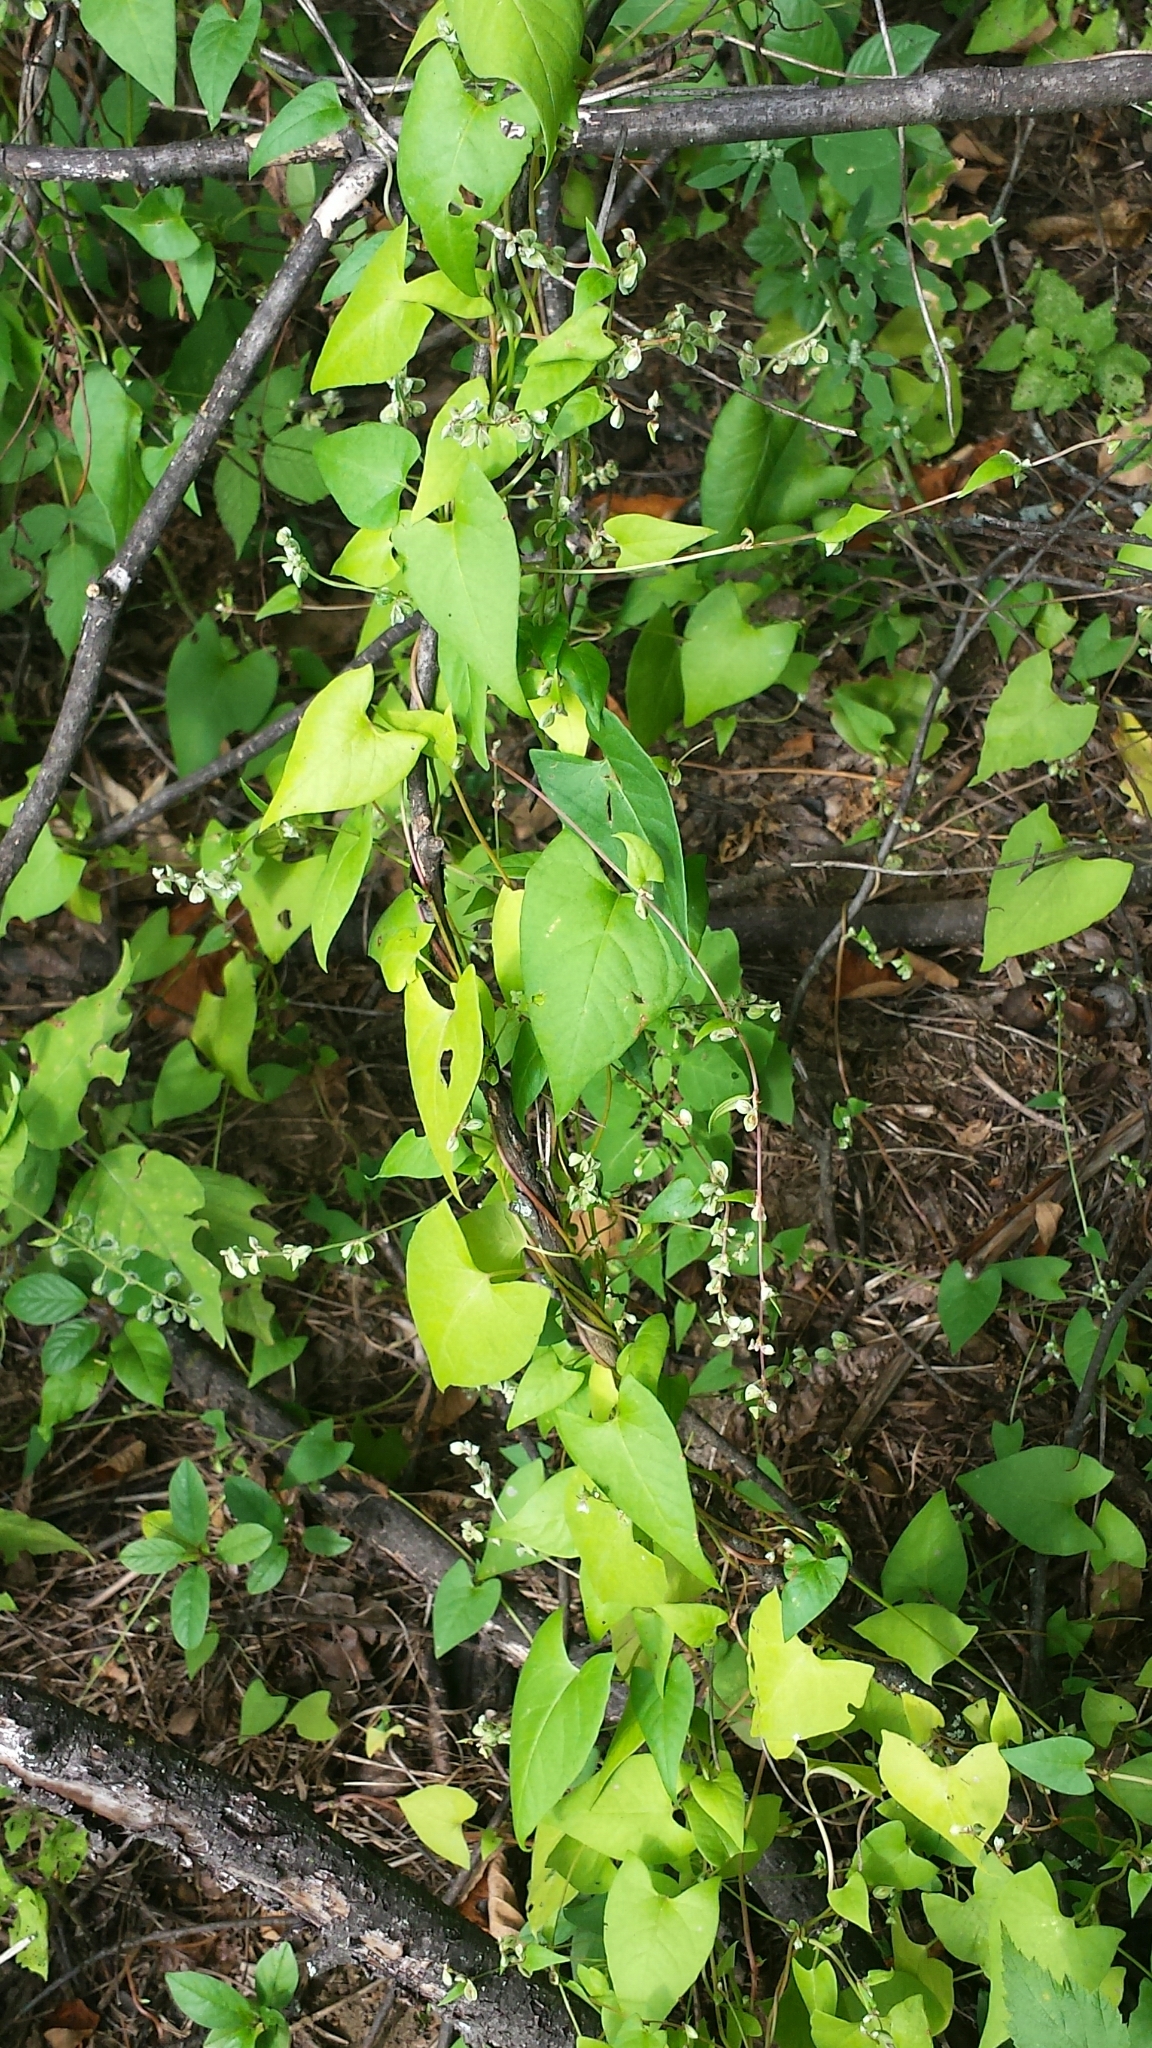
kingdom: Plantae
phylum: Tracheophyta
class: Magnoliopsida
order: Caryophyllales
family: Polygonaceae
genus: Fallopia
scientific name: Fallopia scandens
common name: Climbing false buckwheat
